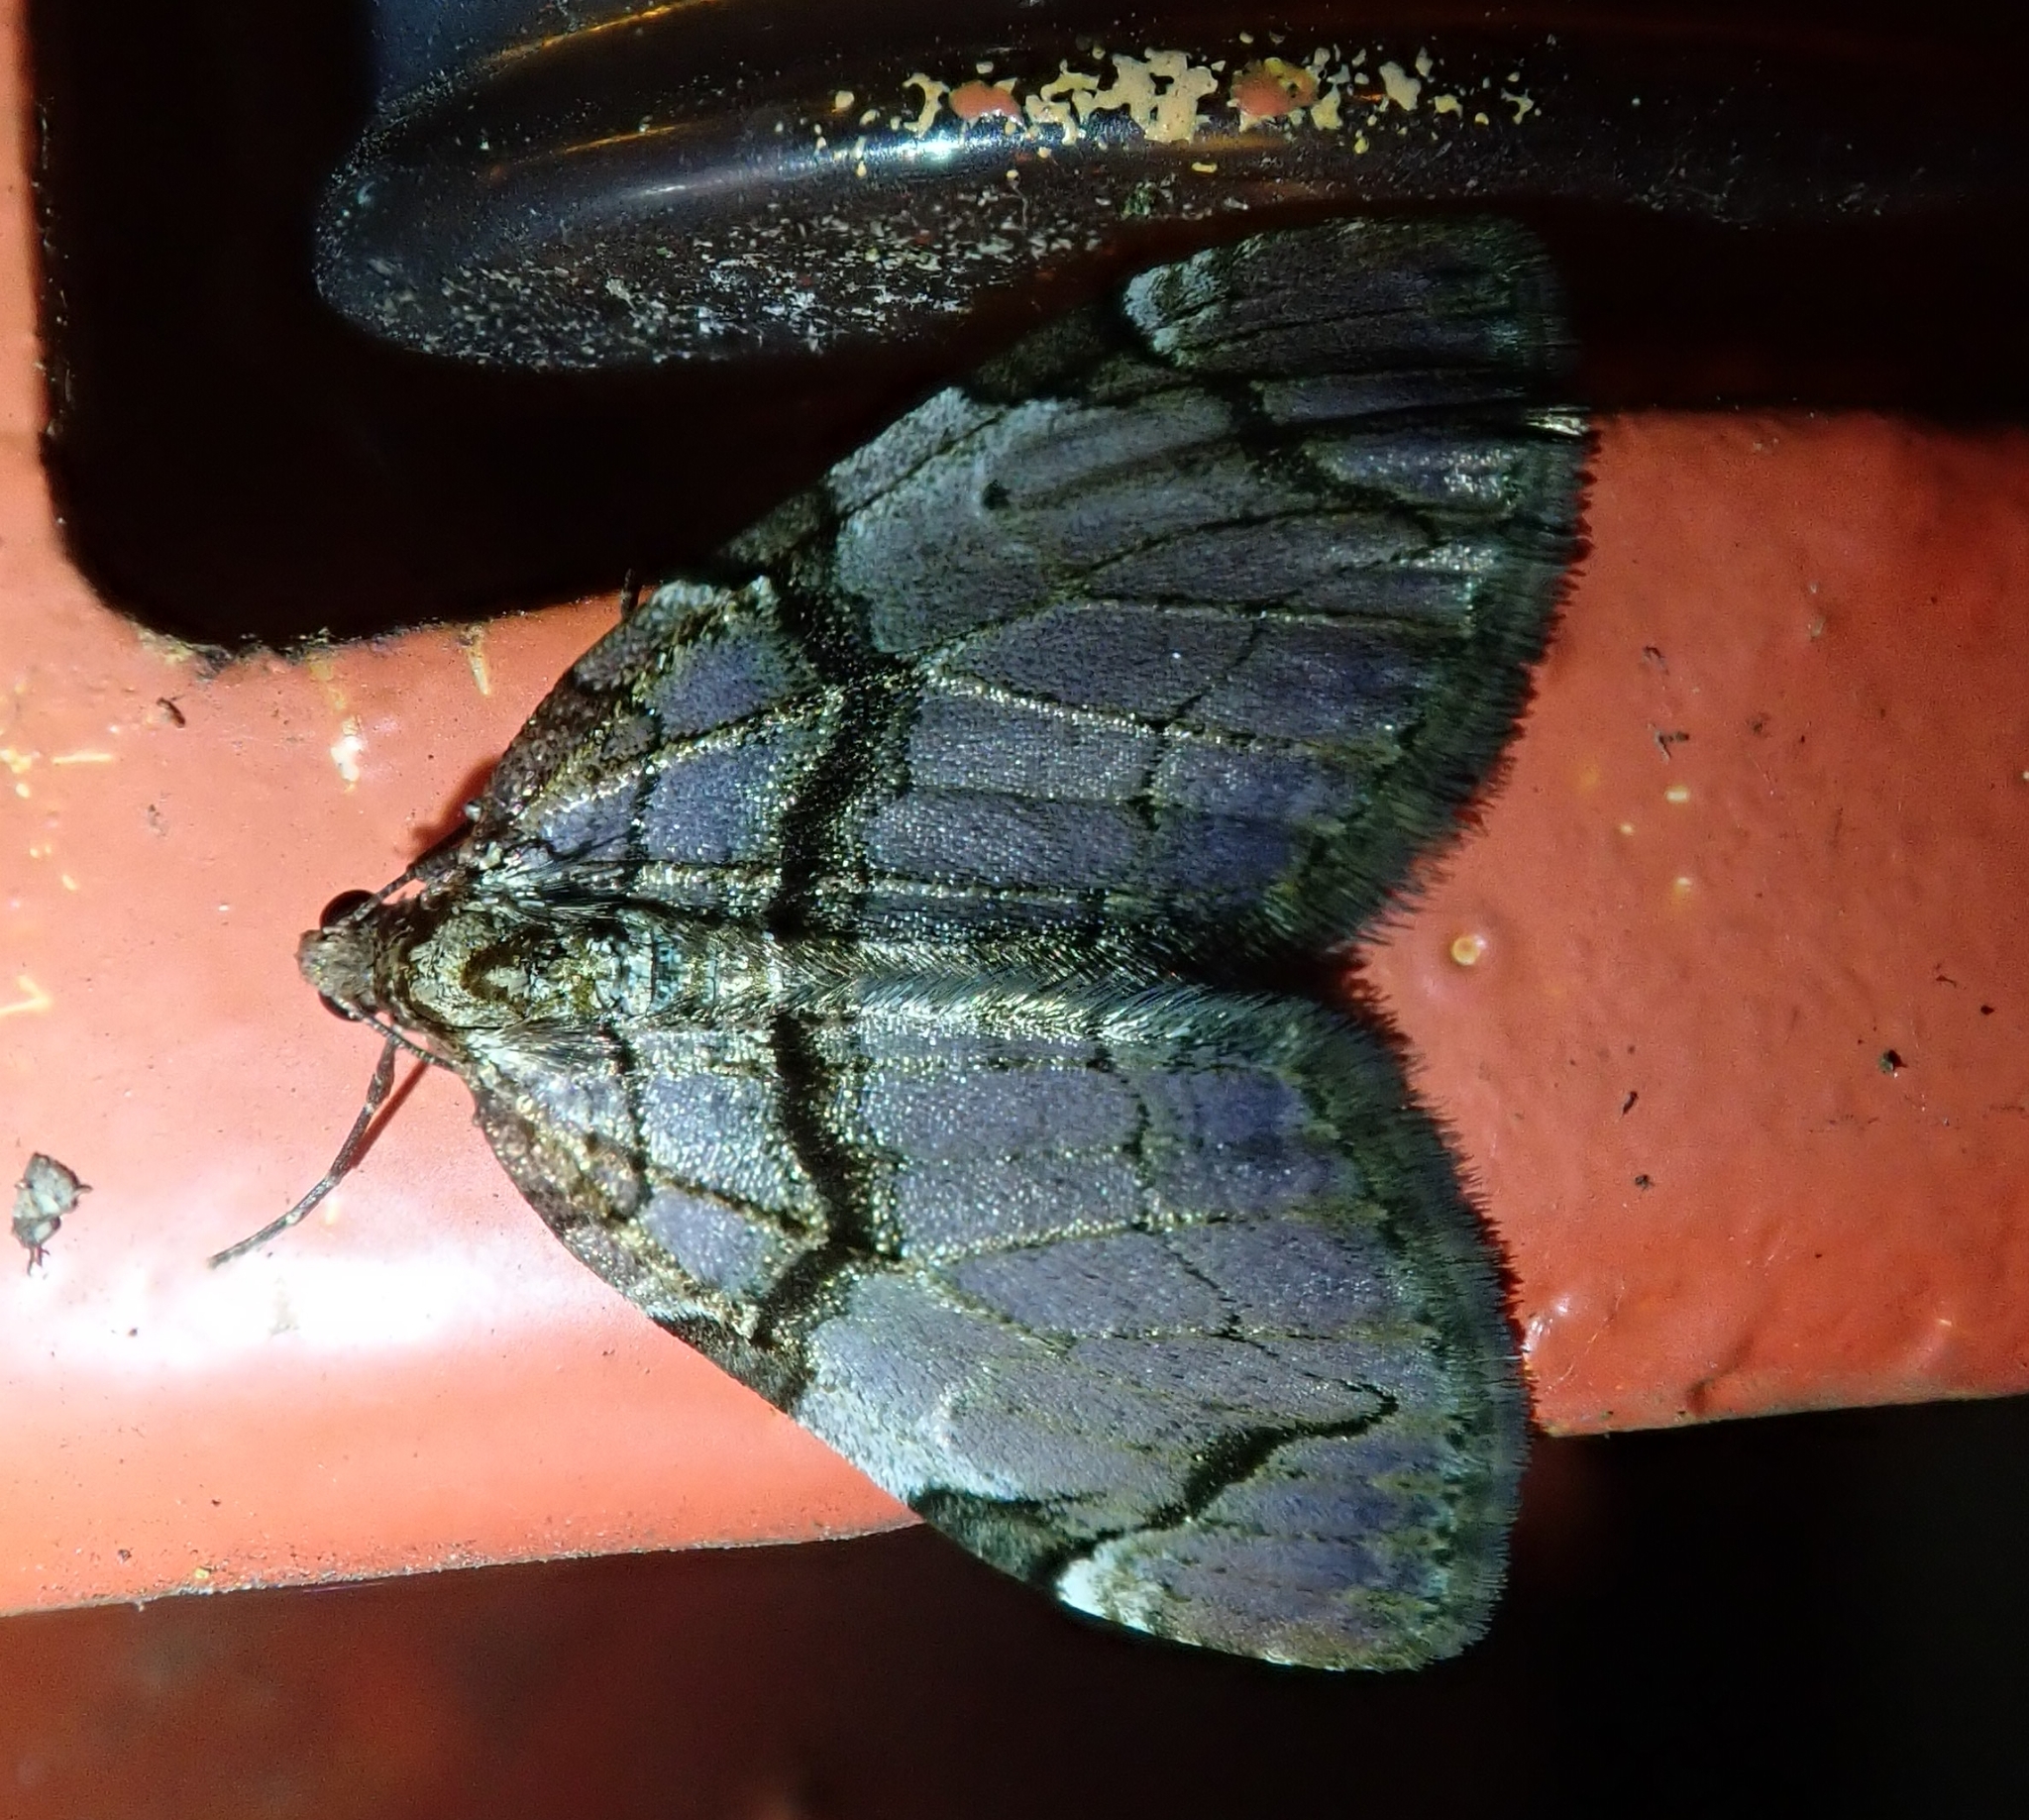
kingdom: Animalia
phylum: Arthropoda
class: Insecta
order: Lepidoptera
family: Geometridae
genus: Anticlea
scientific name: Anticlea derivata
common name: Streamer
